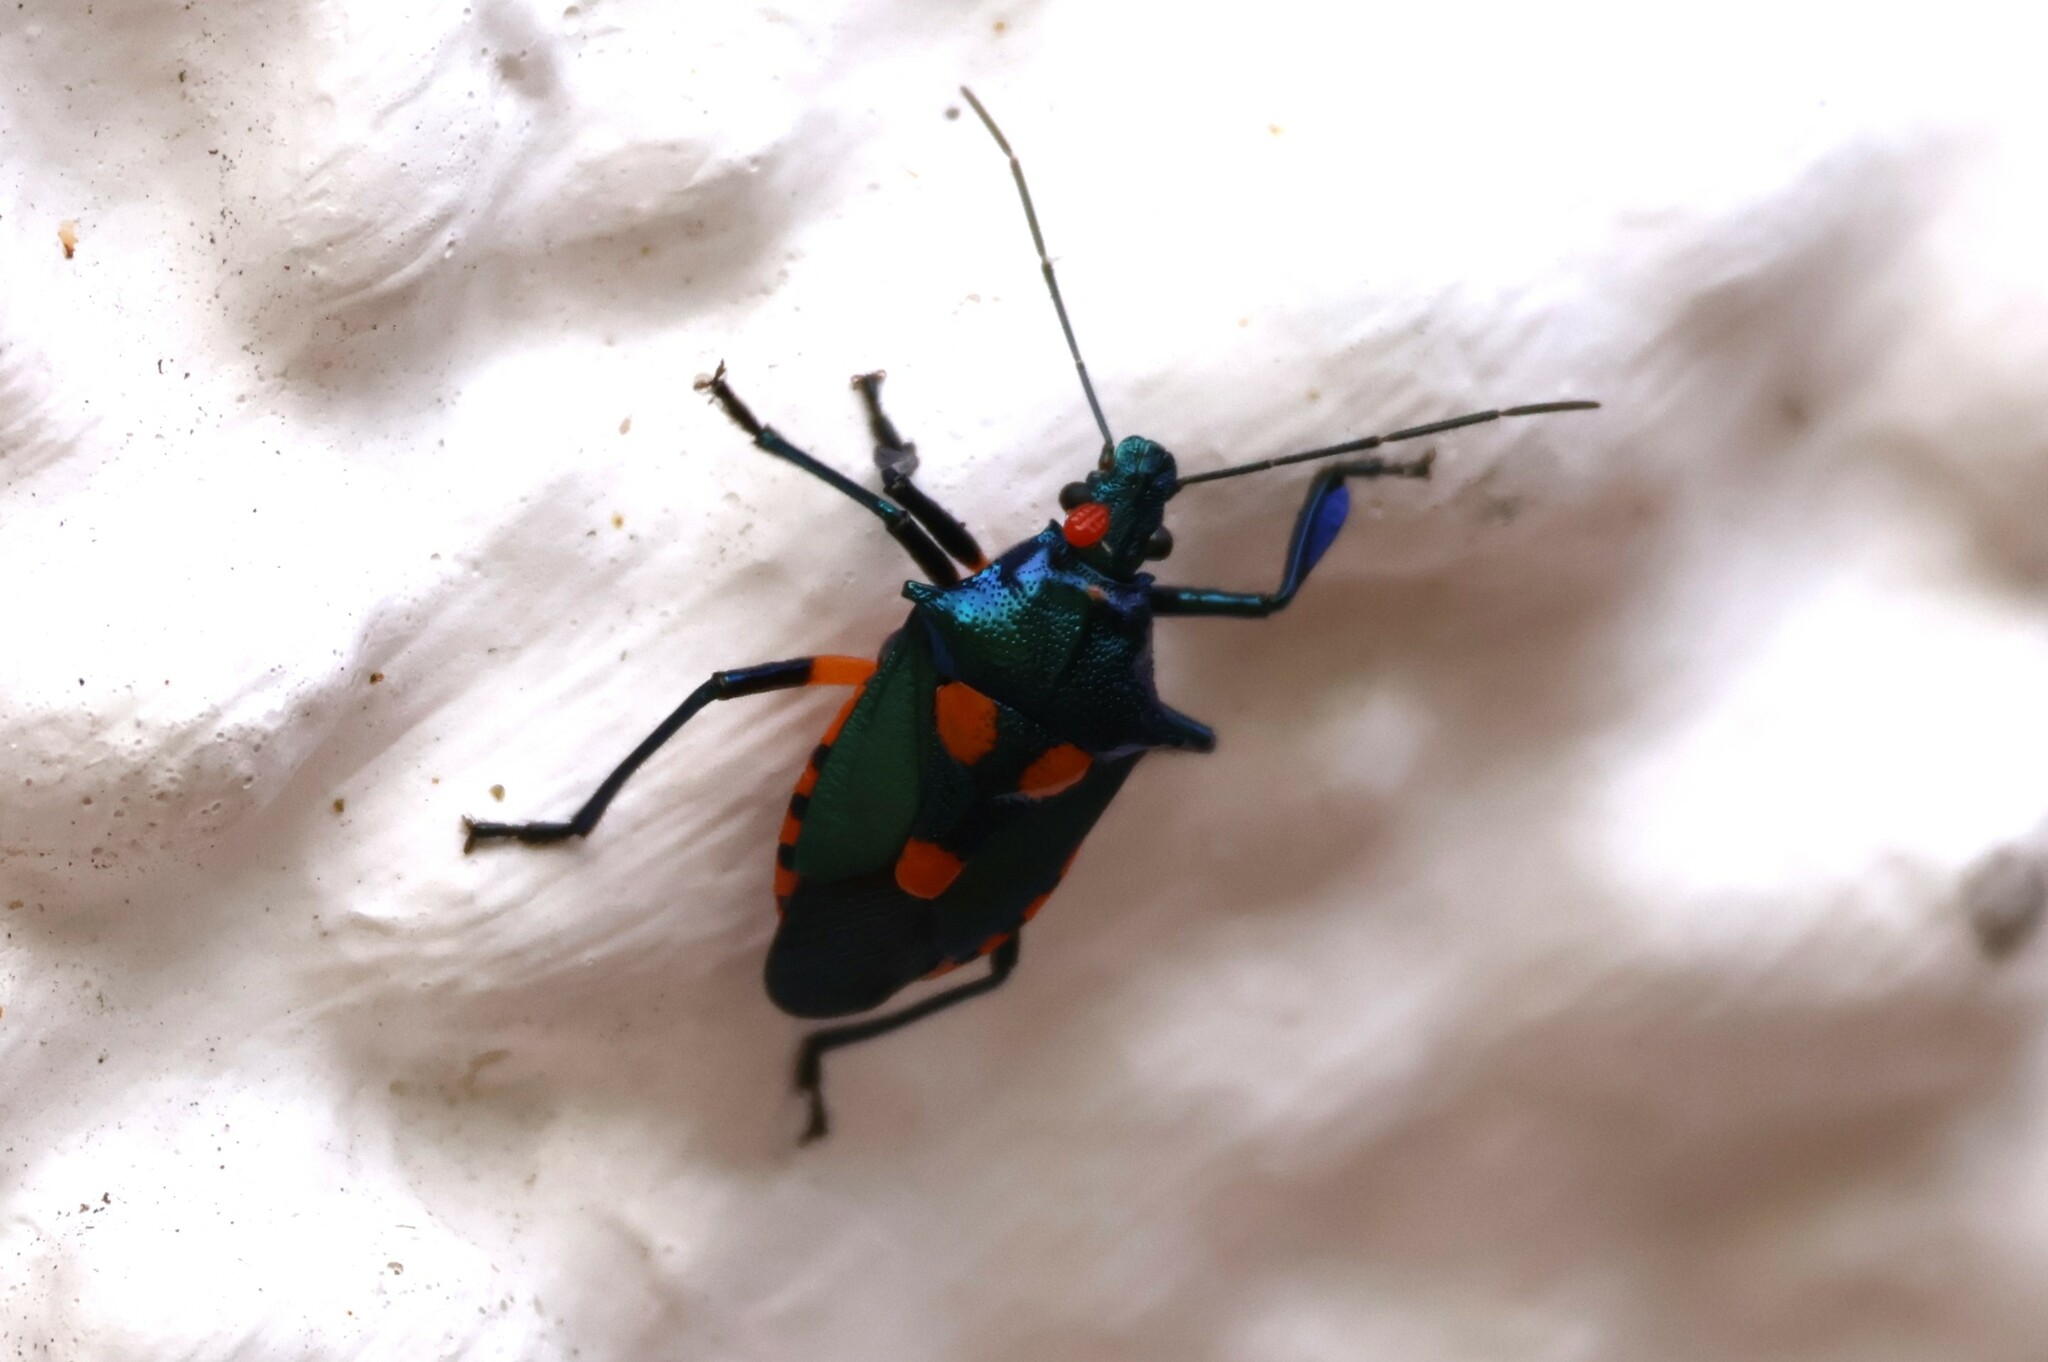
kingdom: Animalia
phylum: Arthropoda
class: Insecta
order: Hemiptera
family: Pentatomidae
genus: Euthyrhynchus
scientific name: Euthyrhynchus floridanus
